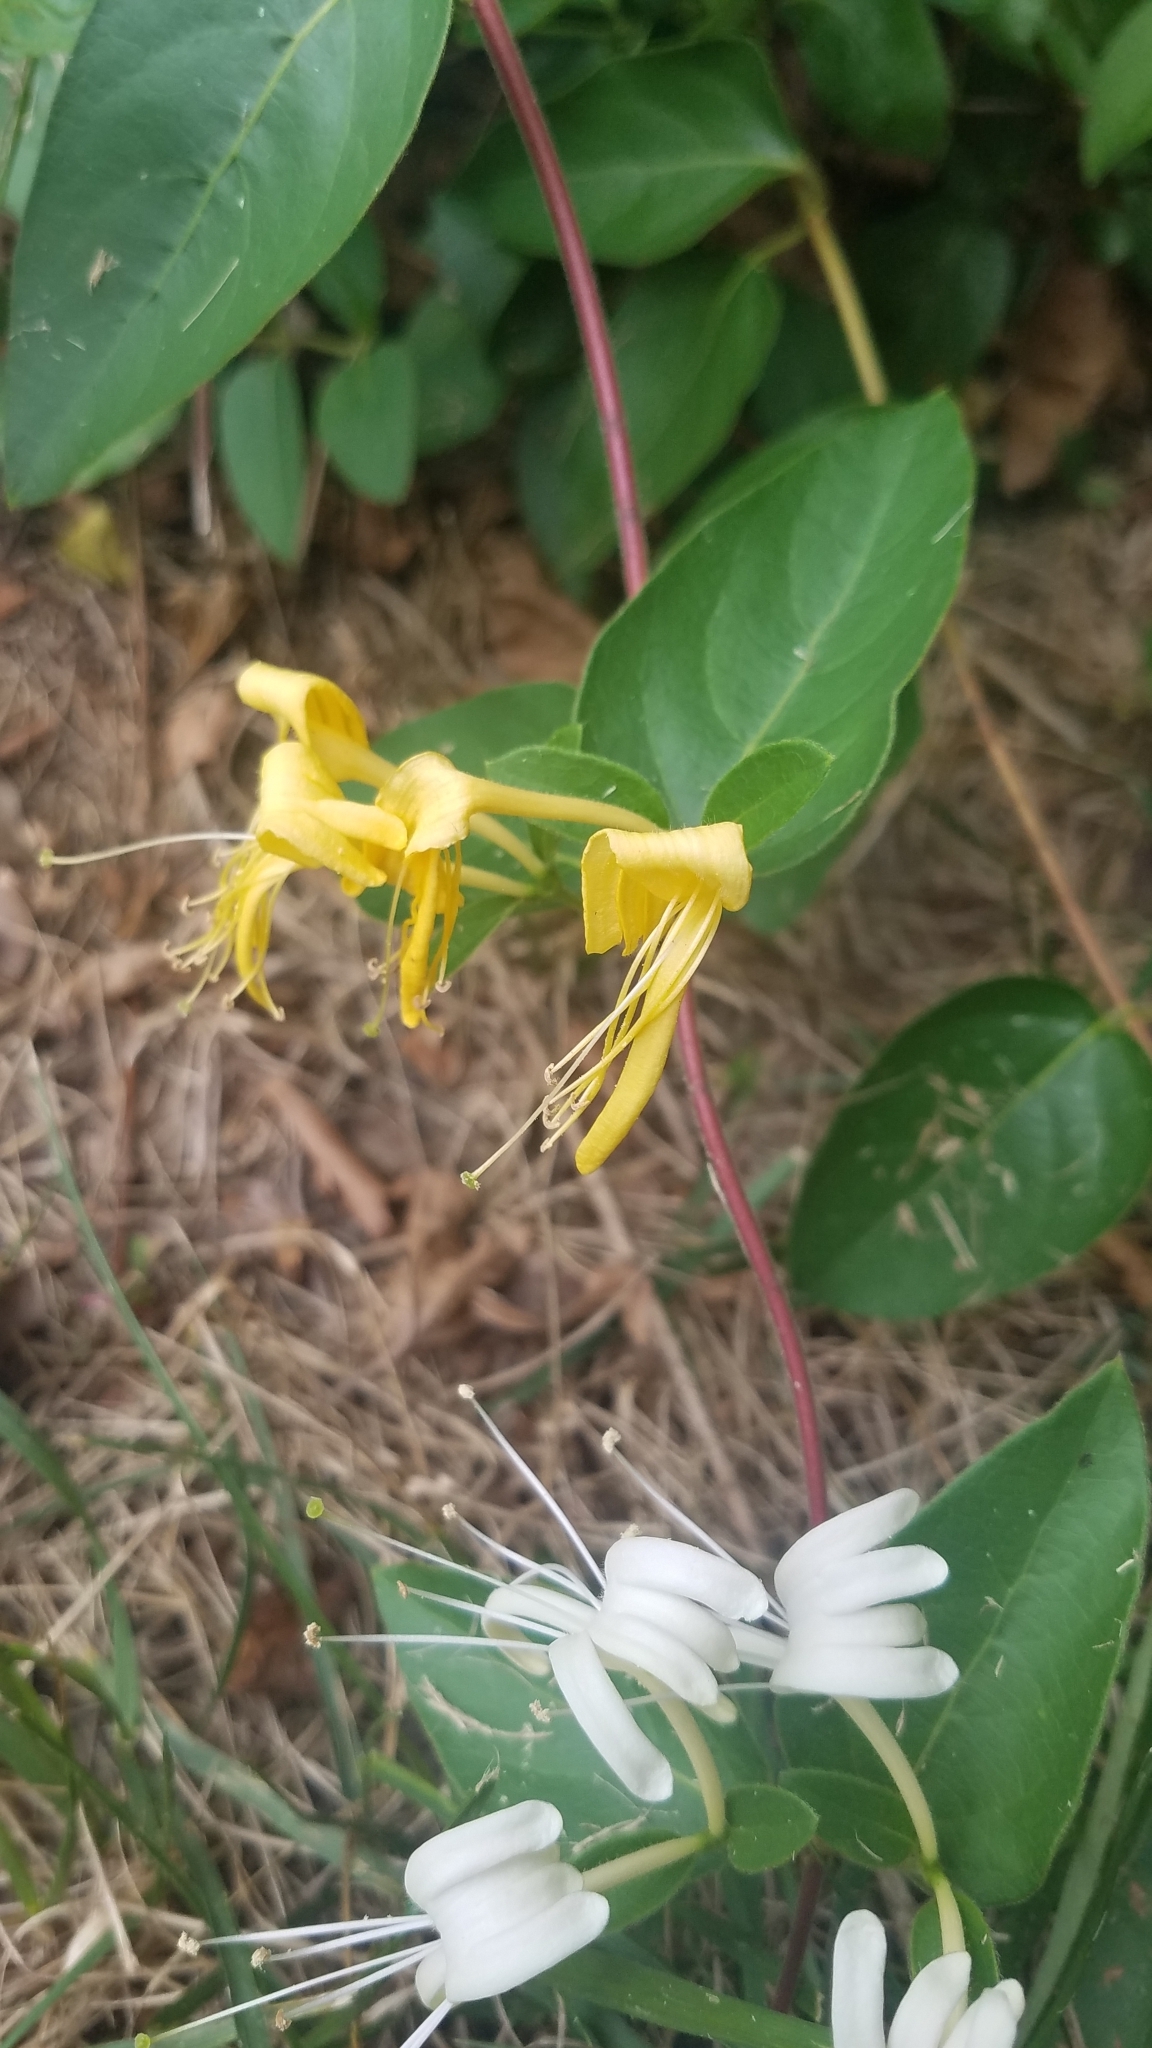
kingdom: Plantae
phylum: Tracheophyta
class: Magnoliopsida
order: Dipsacales
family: Caprifoliaceae
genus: Lonicera
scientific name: Lonicera japonica
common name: Japanese honeysuckle
